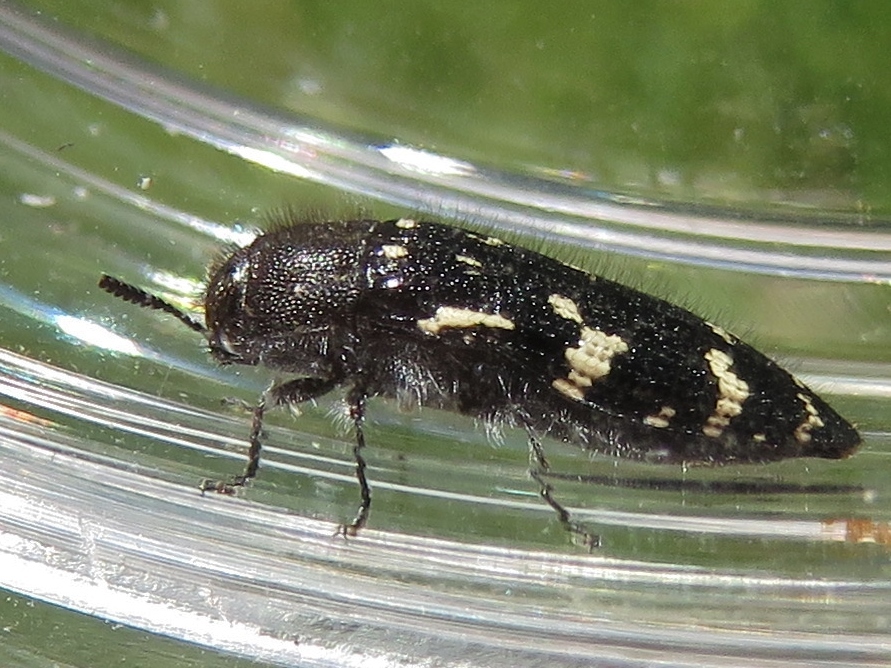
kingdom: Animalia
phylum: Arthropoda
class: Insecta
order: Coleoptera
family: Buprestidae
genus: Acmaeodera
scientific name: Acmaeodera ornata
